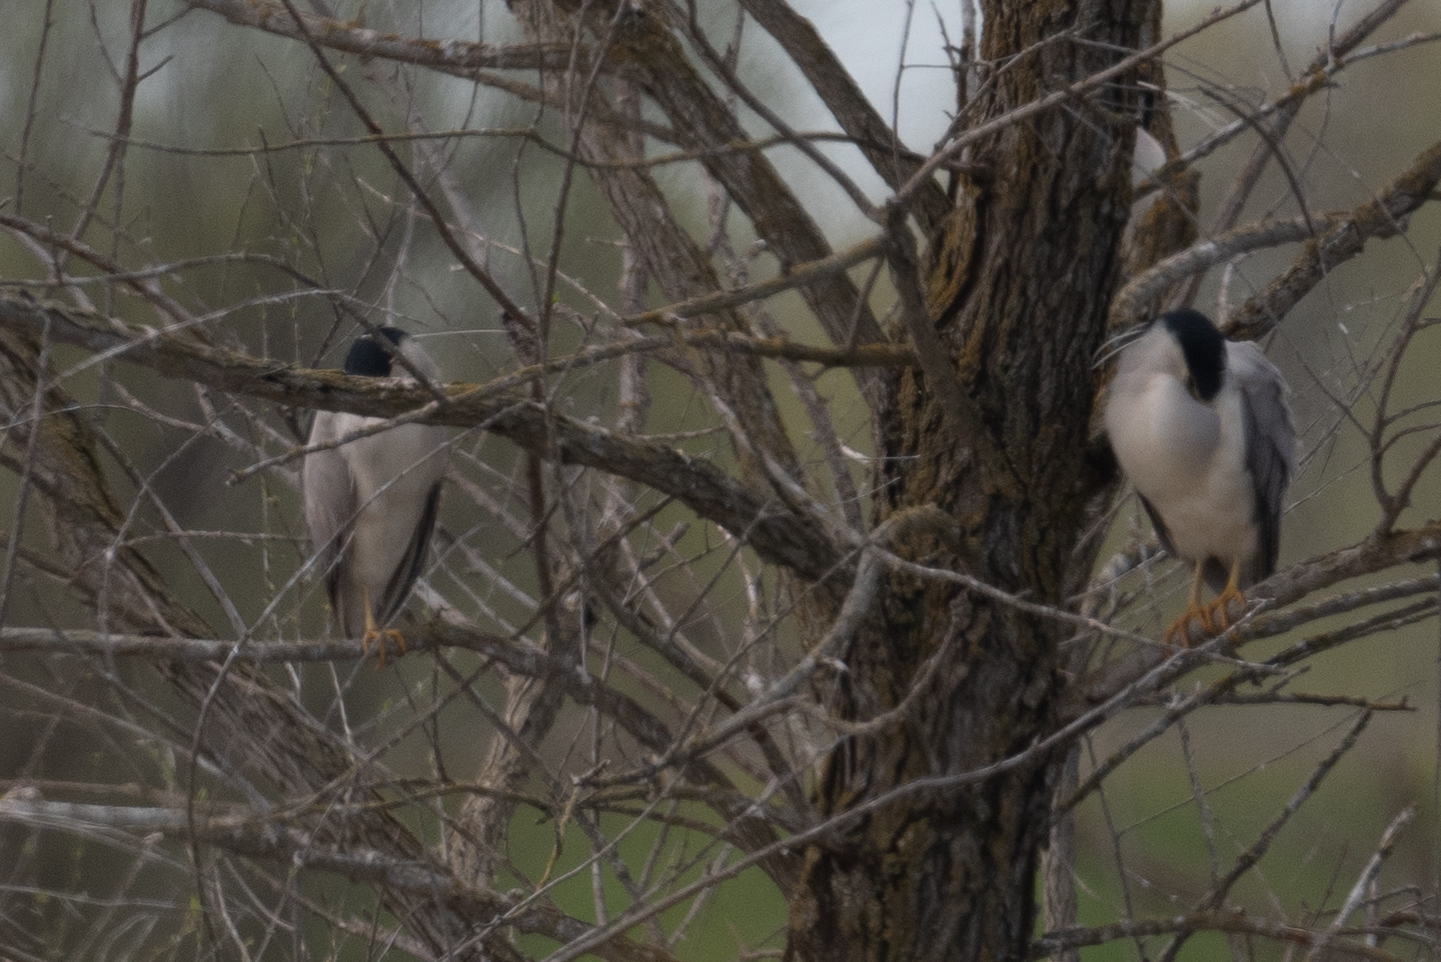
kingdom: Animalia
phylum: Chordata
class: Aves
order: Pelecaniformes
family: Ardeidae
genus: Nycticorax
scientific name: Nycticorax nycticorax
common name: Black-crowned night heron
